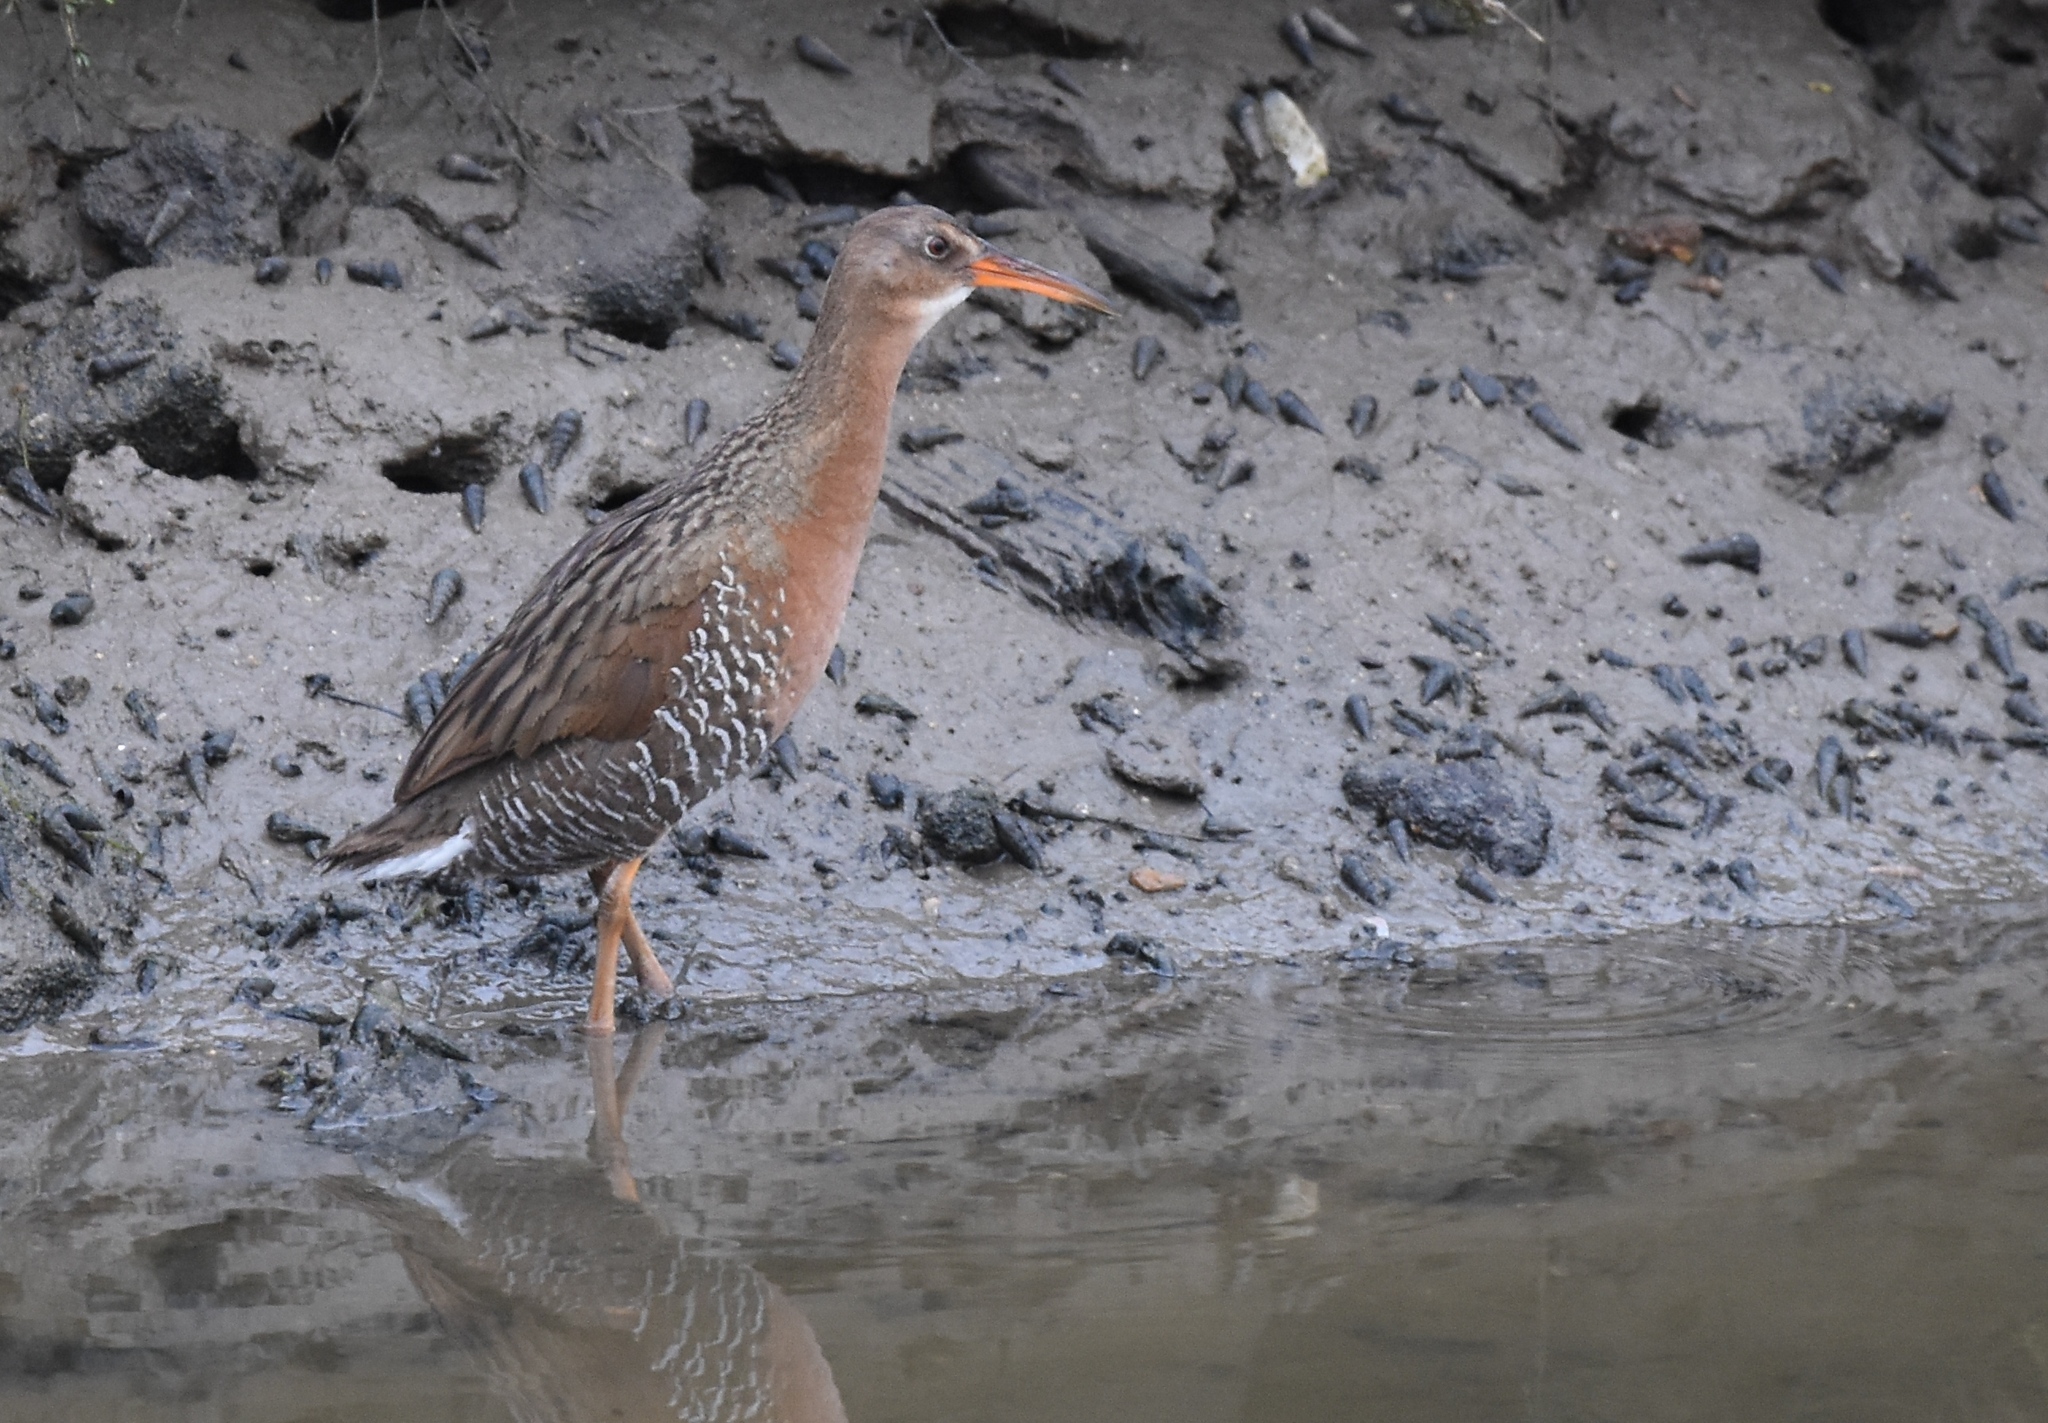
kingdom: Animalia
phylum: Chordata
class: Aves
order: Gruiformes
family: Rallidae
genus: Rallus
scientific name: Rallus obsoletus
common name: Ridgway's rail
